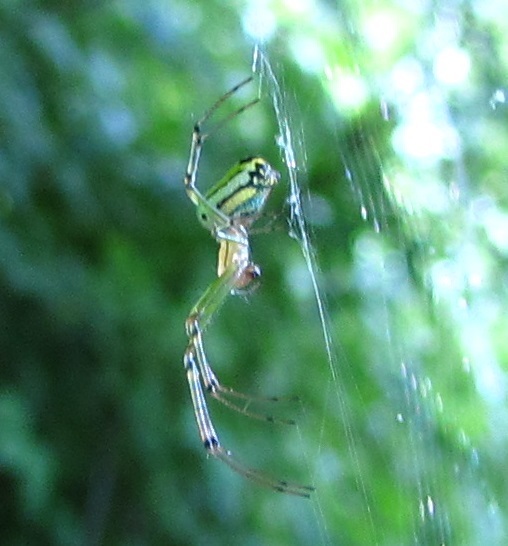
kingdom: Animalia
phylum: Arthropoda
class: Arachnida
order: Araneae
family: Tetragnathidae
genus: Leucauge
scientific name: Leucauge venusta
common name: Longjawed orb weavers
